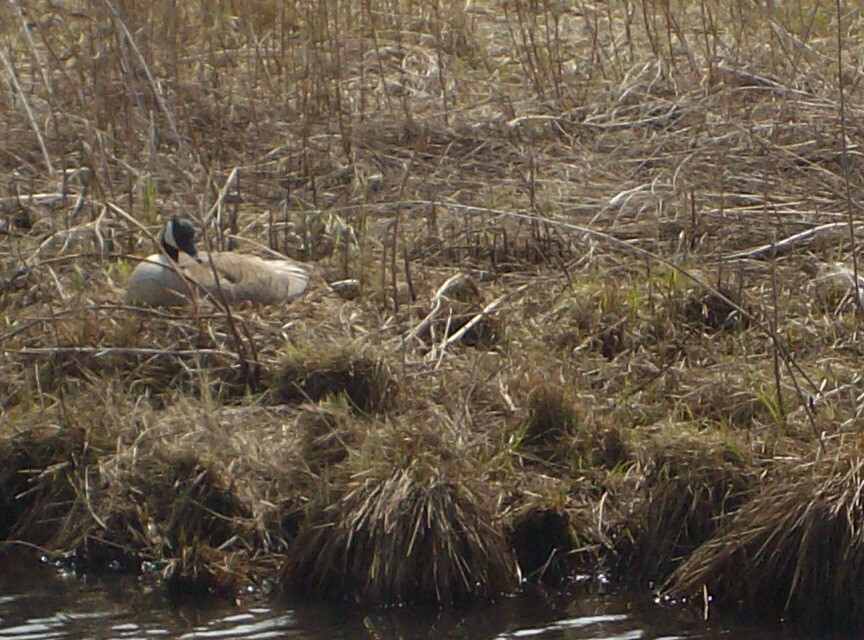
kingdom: Animalia
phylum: Chordata
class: Aves
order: Anseriformes
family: Anatidae
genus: Branta
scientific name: Branta canadensis
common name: Canada goose
